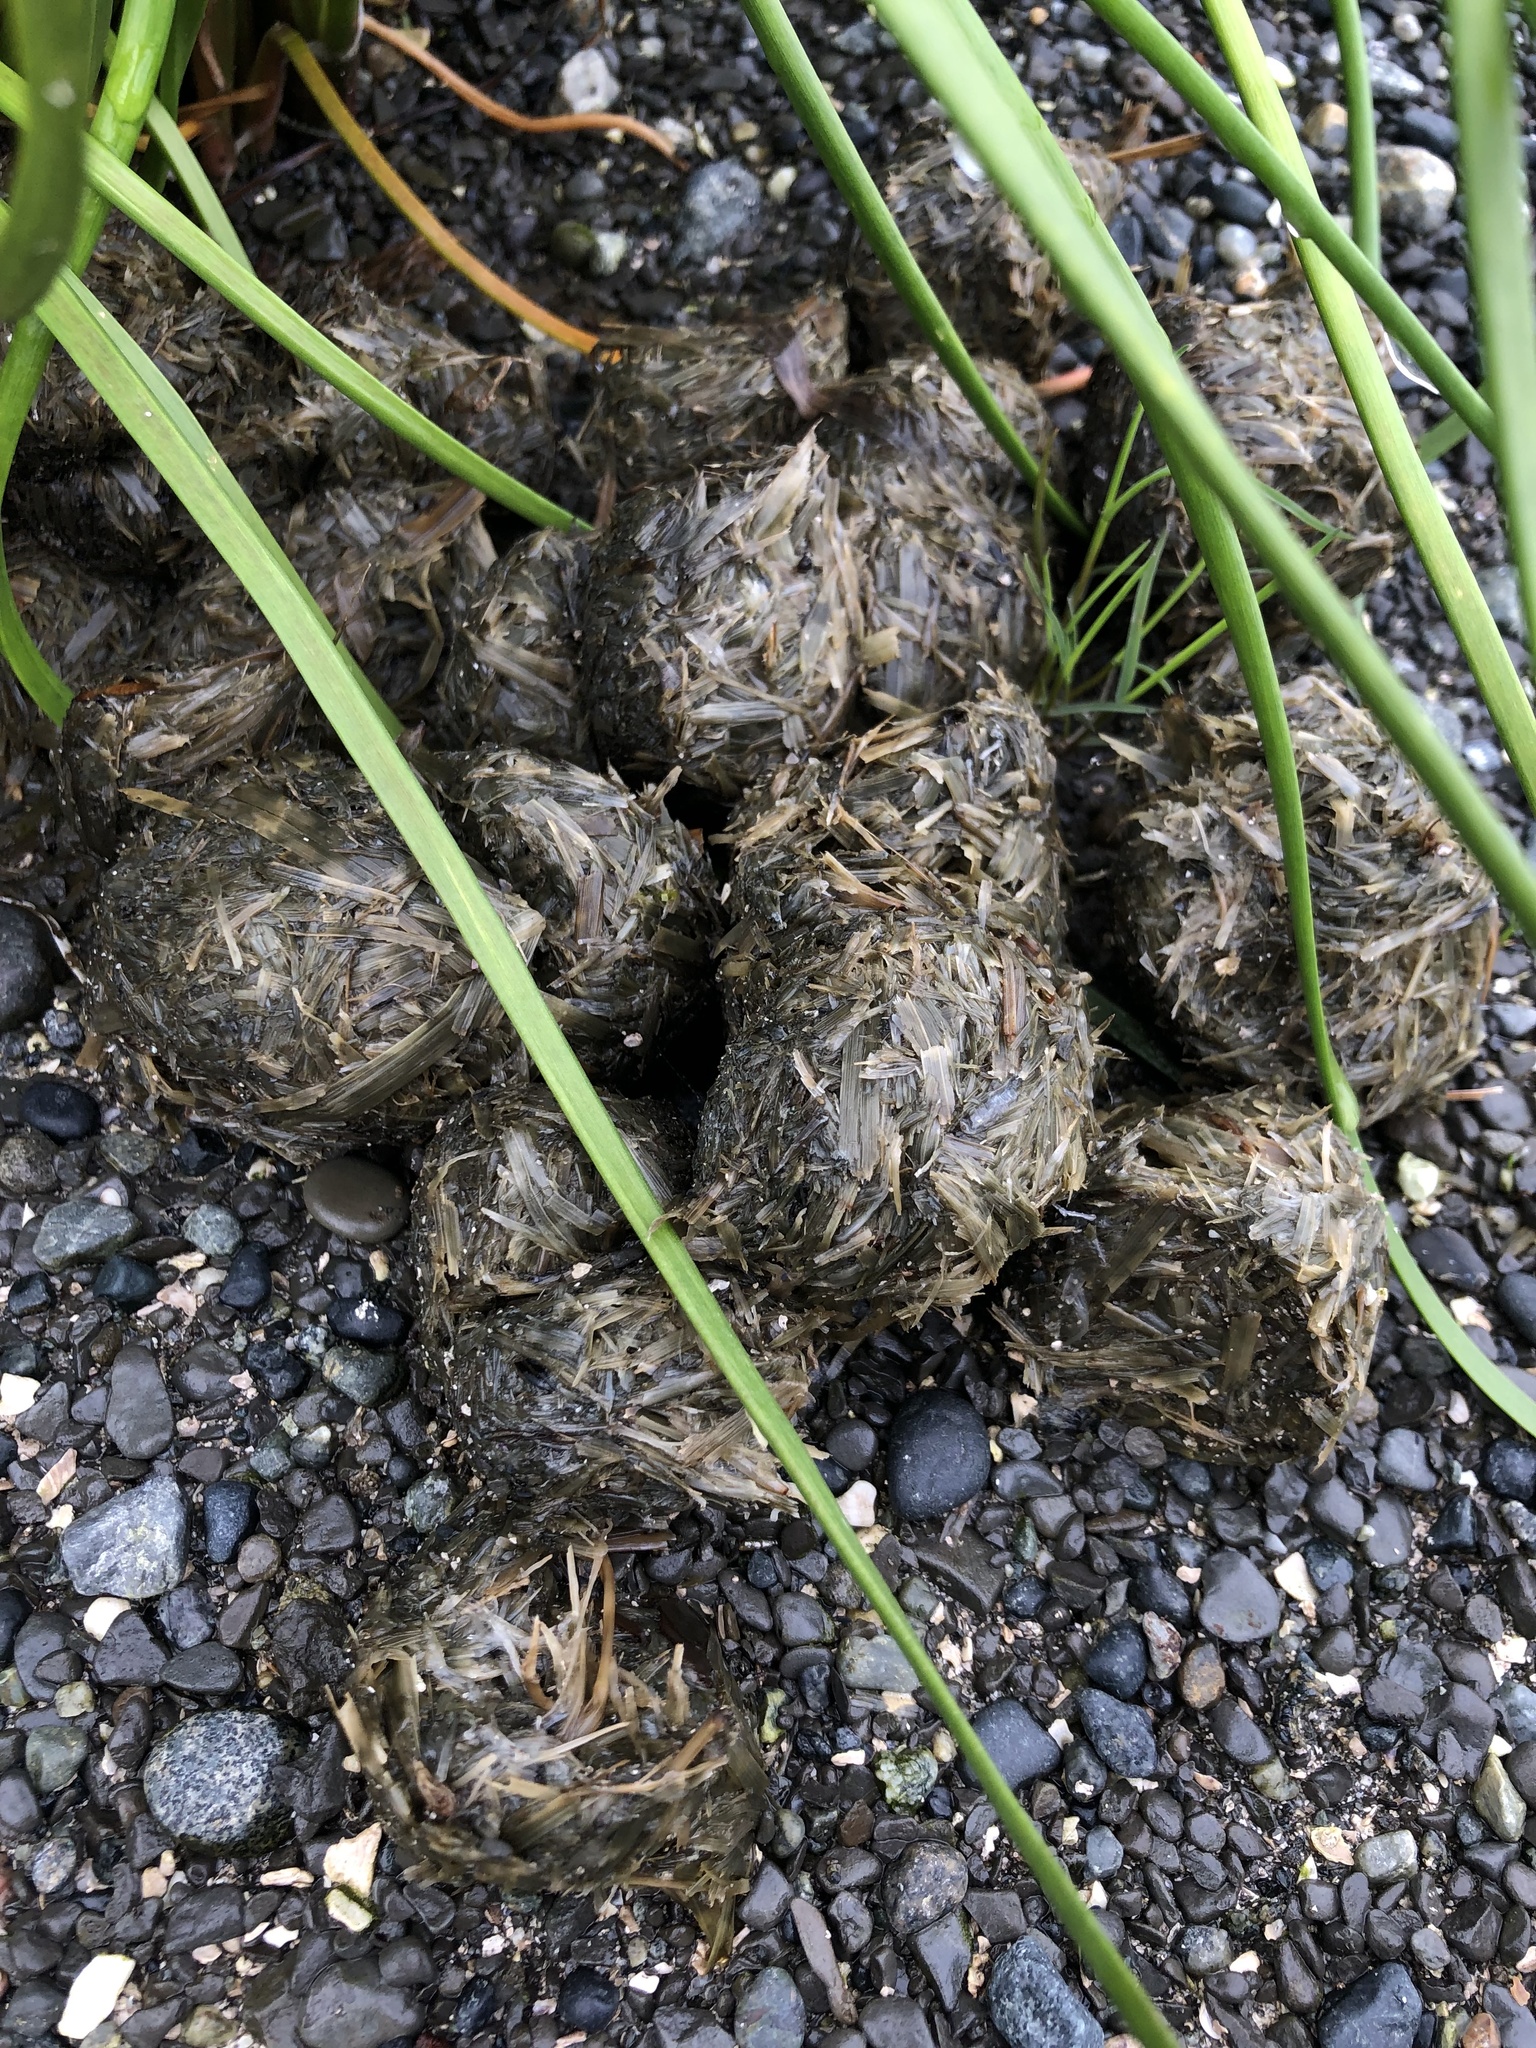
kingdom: Animalia
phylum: Chordata
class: Mammalia
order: Carnivora
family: Ursidae
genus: Ursus
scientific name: Ursus americanus
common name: American black bear
